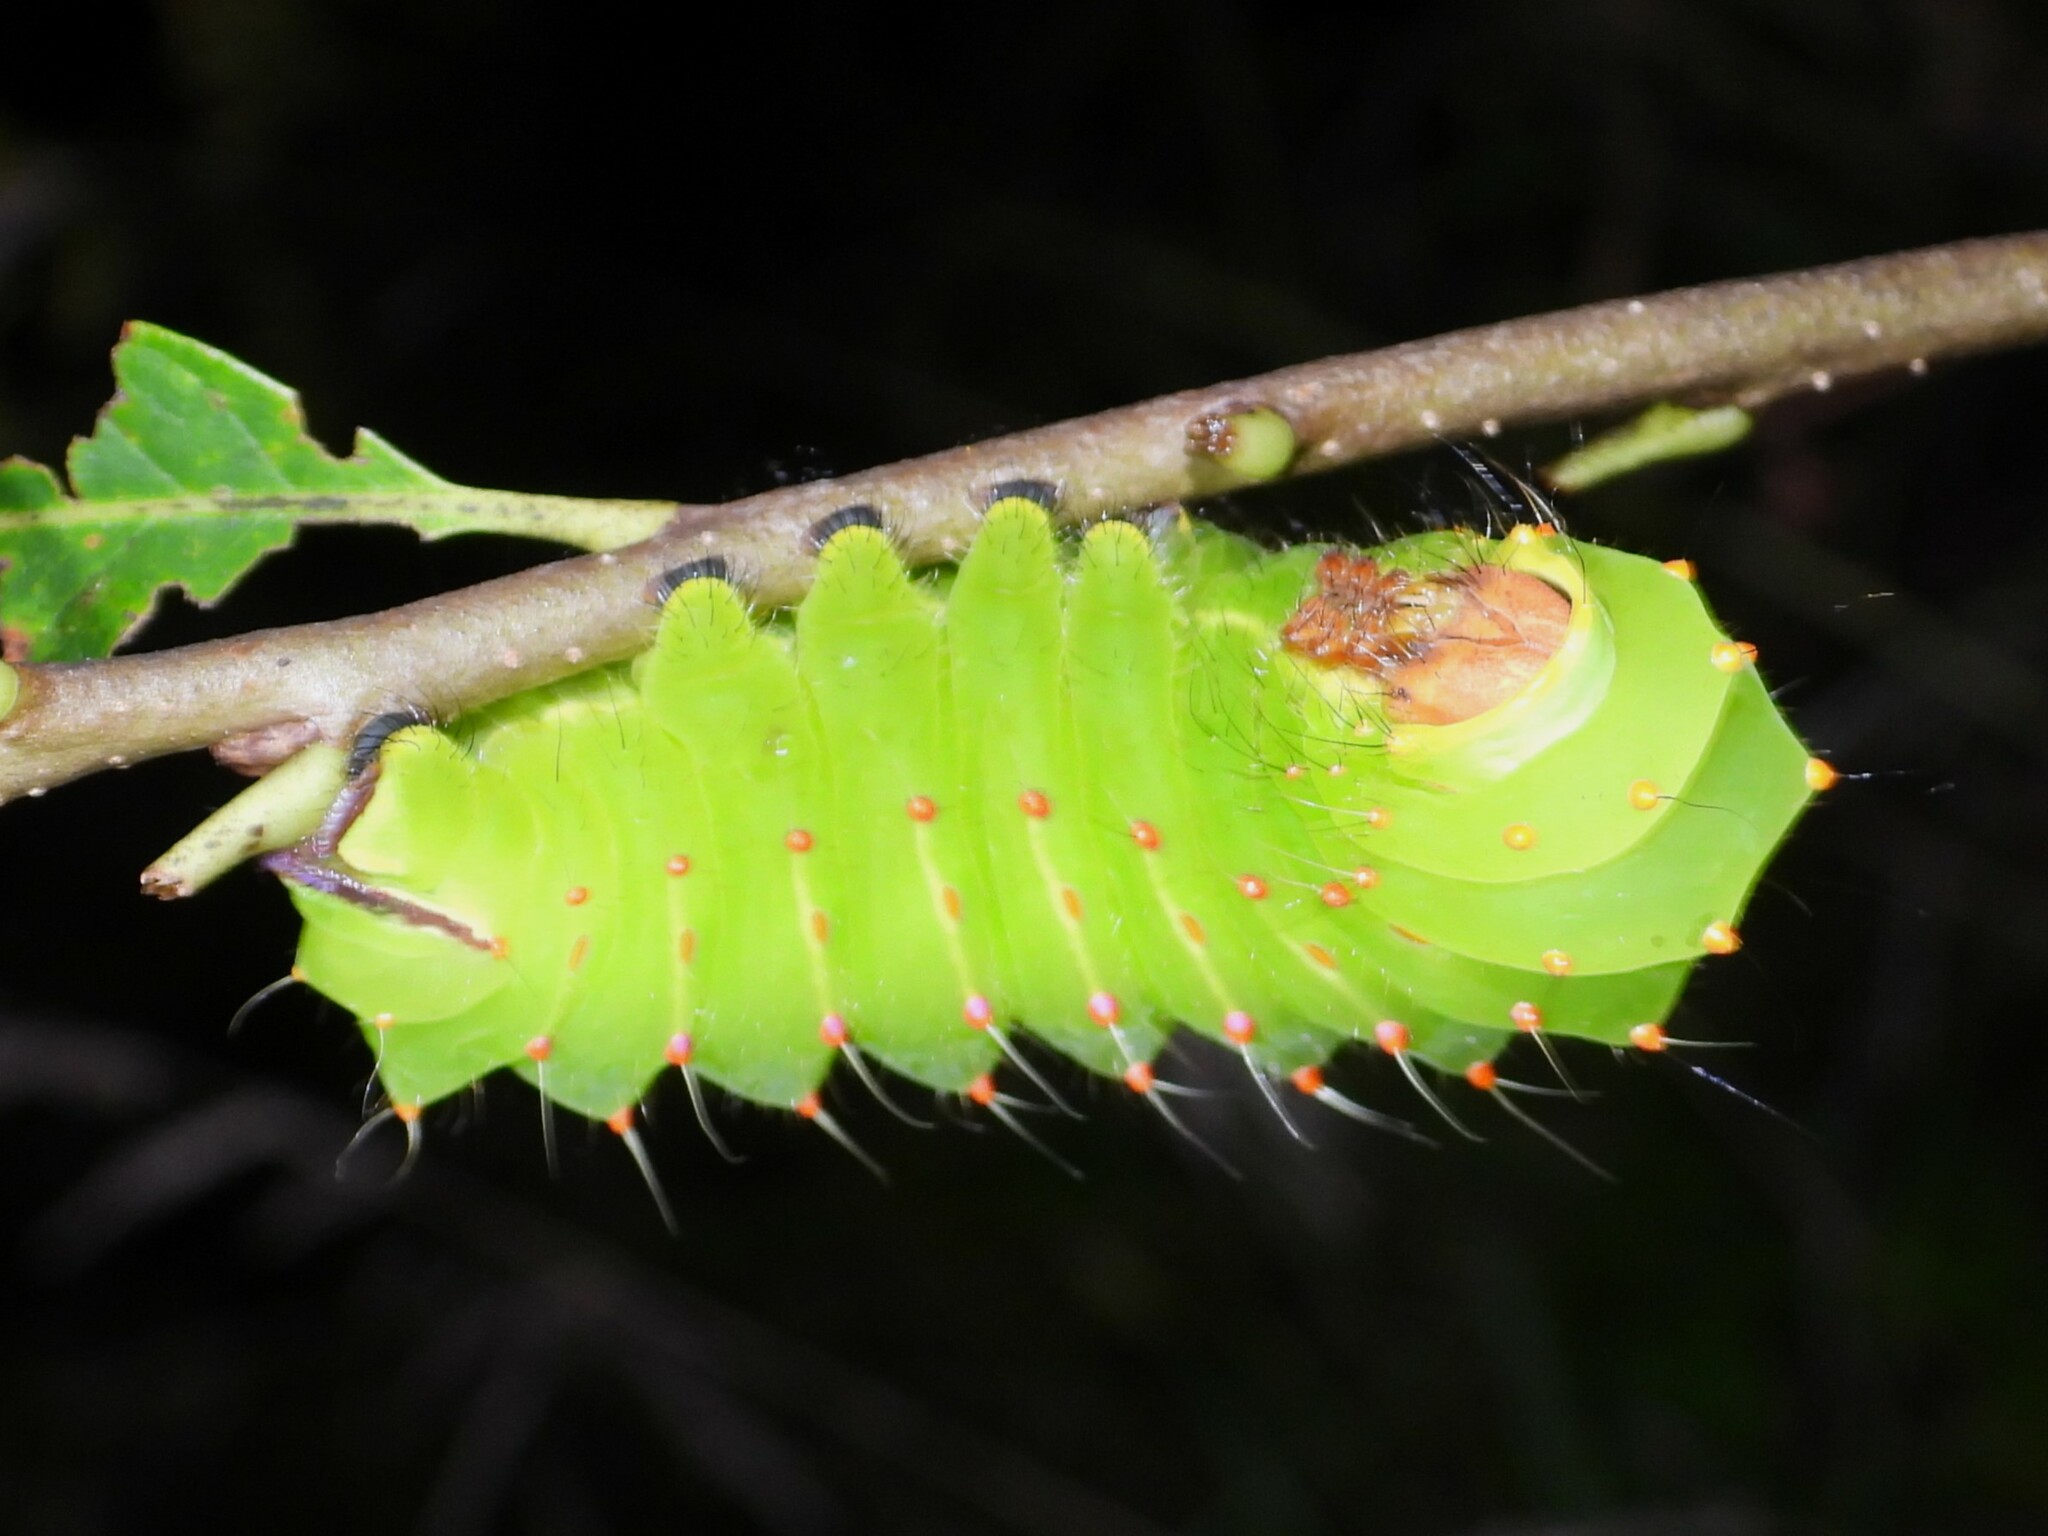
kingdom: Animalia
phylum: Arthropoda
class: Insecta
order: Lepidoptera
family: Saturniidae
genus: Antheraea
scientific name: Antheraea polyphemus
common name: Polyphemus moth
